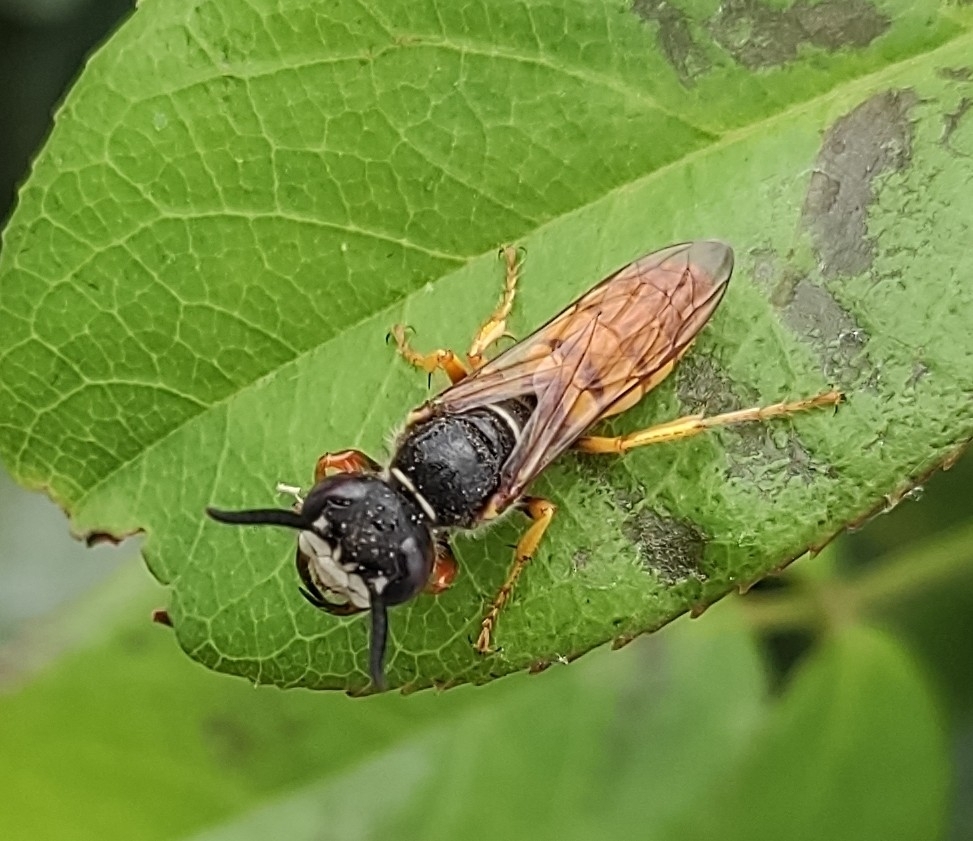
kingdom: Animalia
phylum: Arthropoda
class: Insecta
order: Hymenoptera
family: Crabronidae
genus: Philanthus
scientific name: Philanthus triangulum
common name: Bee wolf
